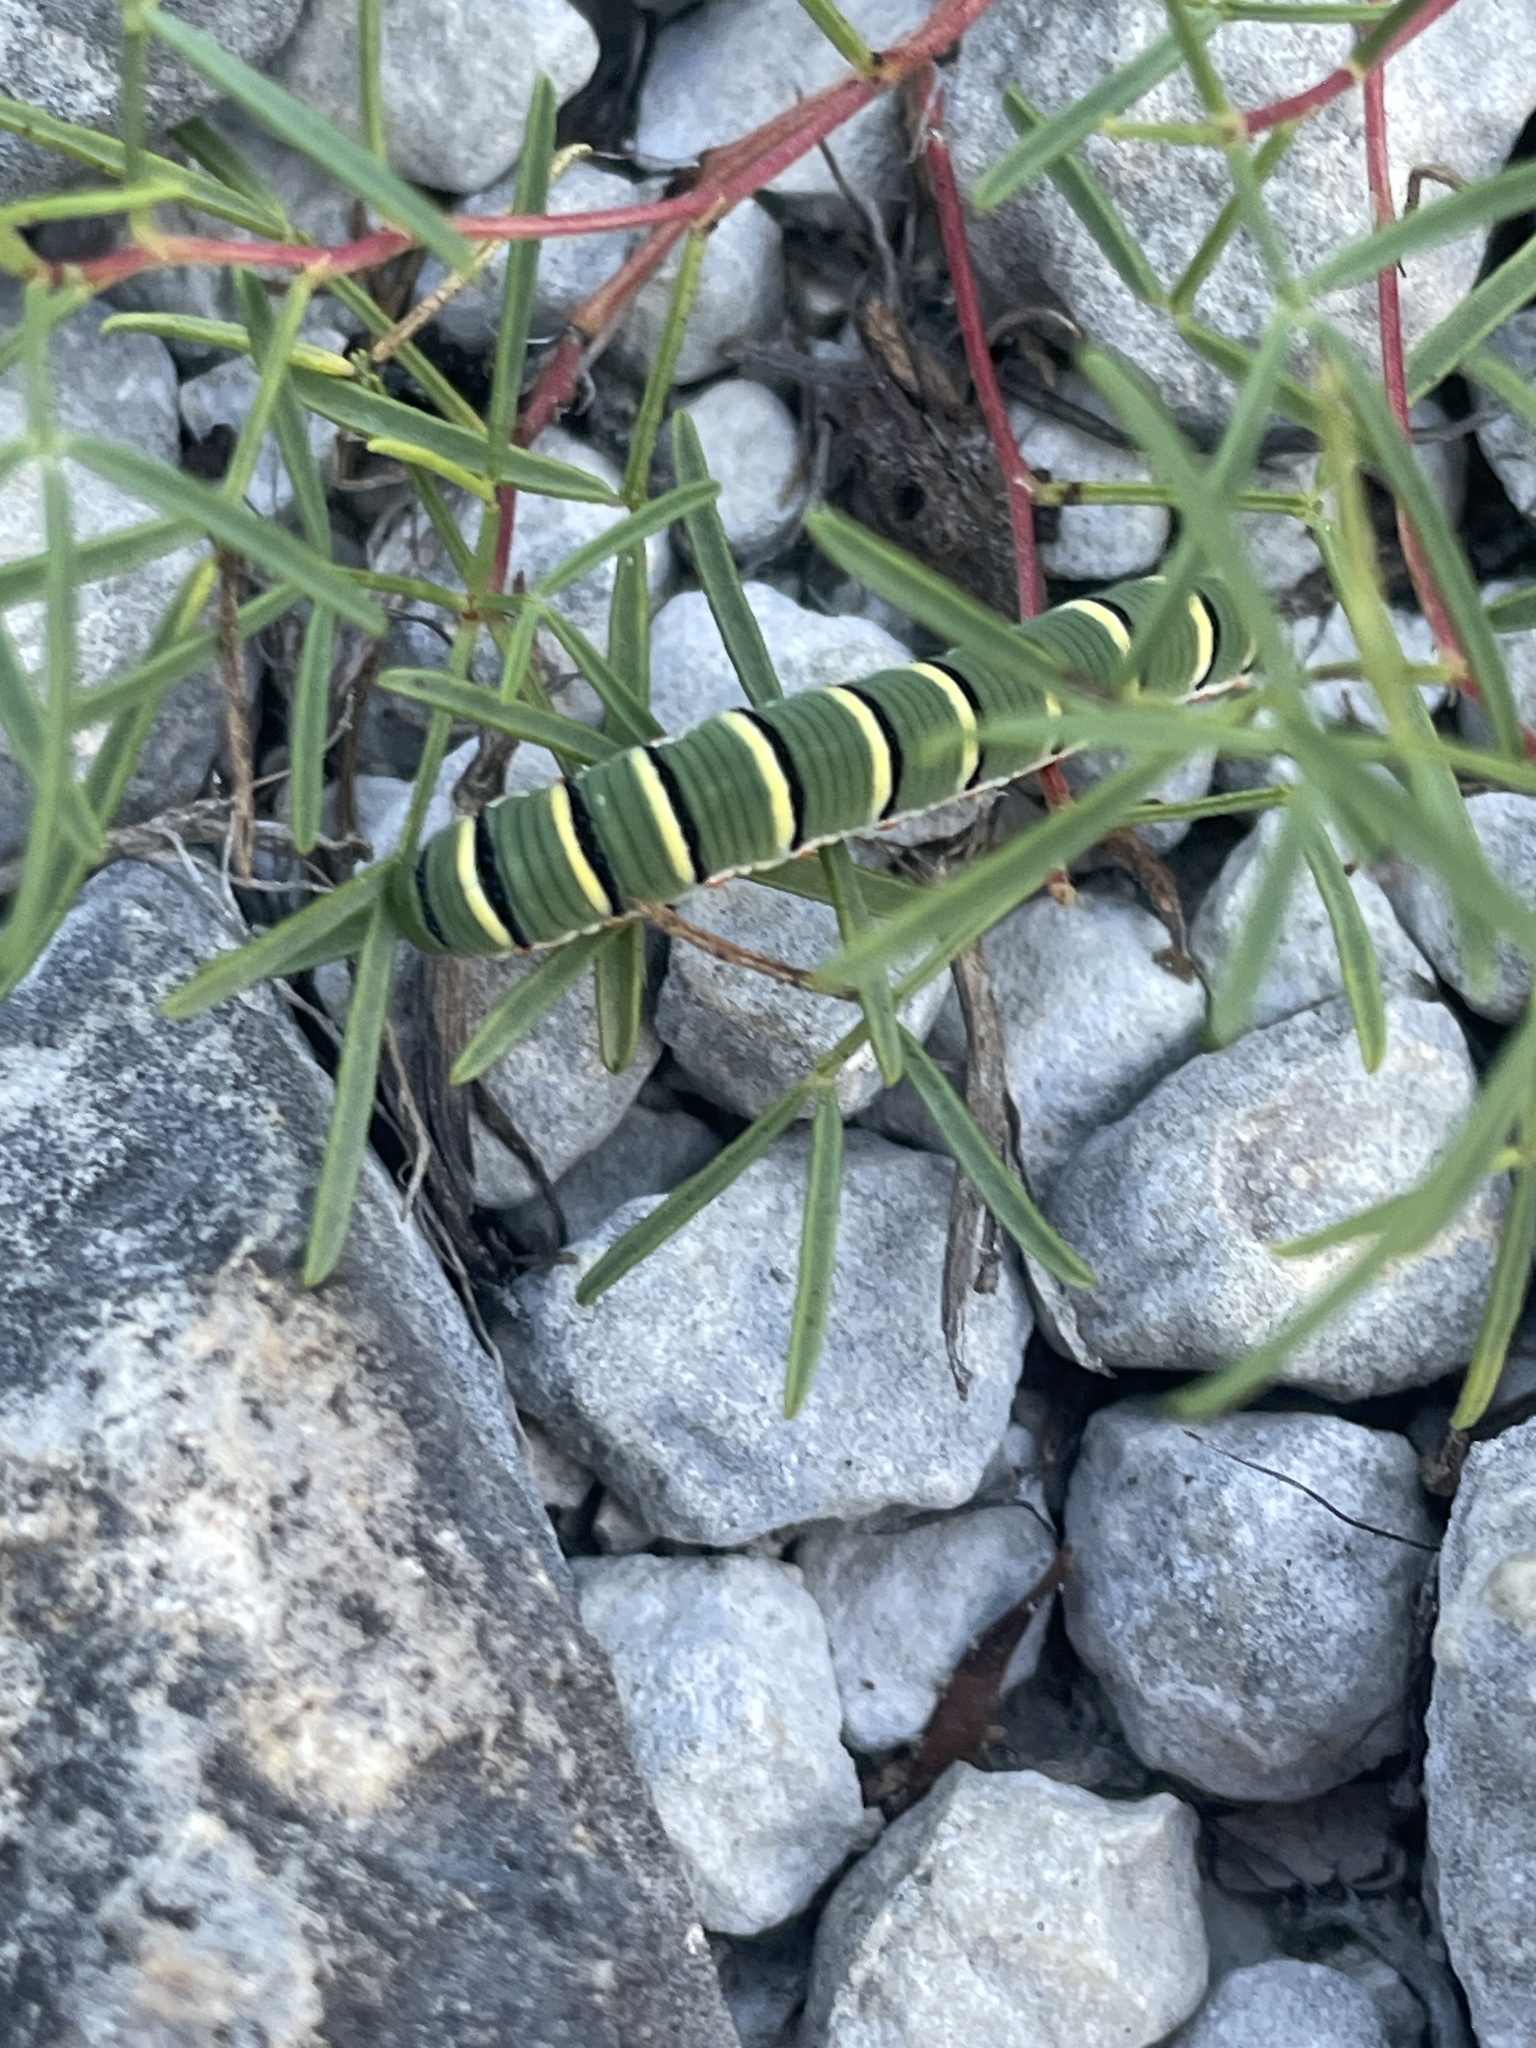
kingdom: Animalia
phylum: Arthropoda
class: Insecta
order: Lepidoptera
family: Pieridae
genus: Zerene
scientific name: Zerene cesonia
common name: Southern dogface
